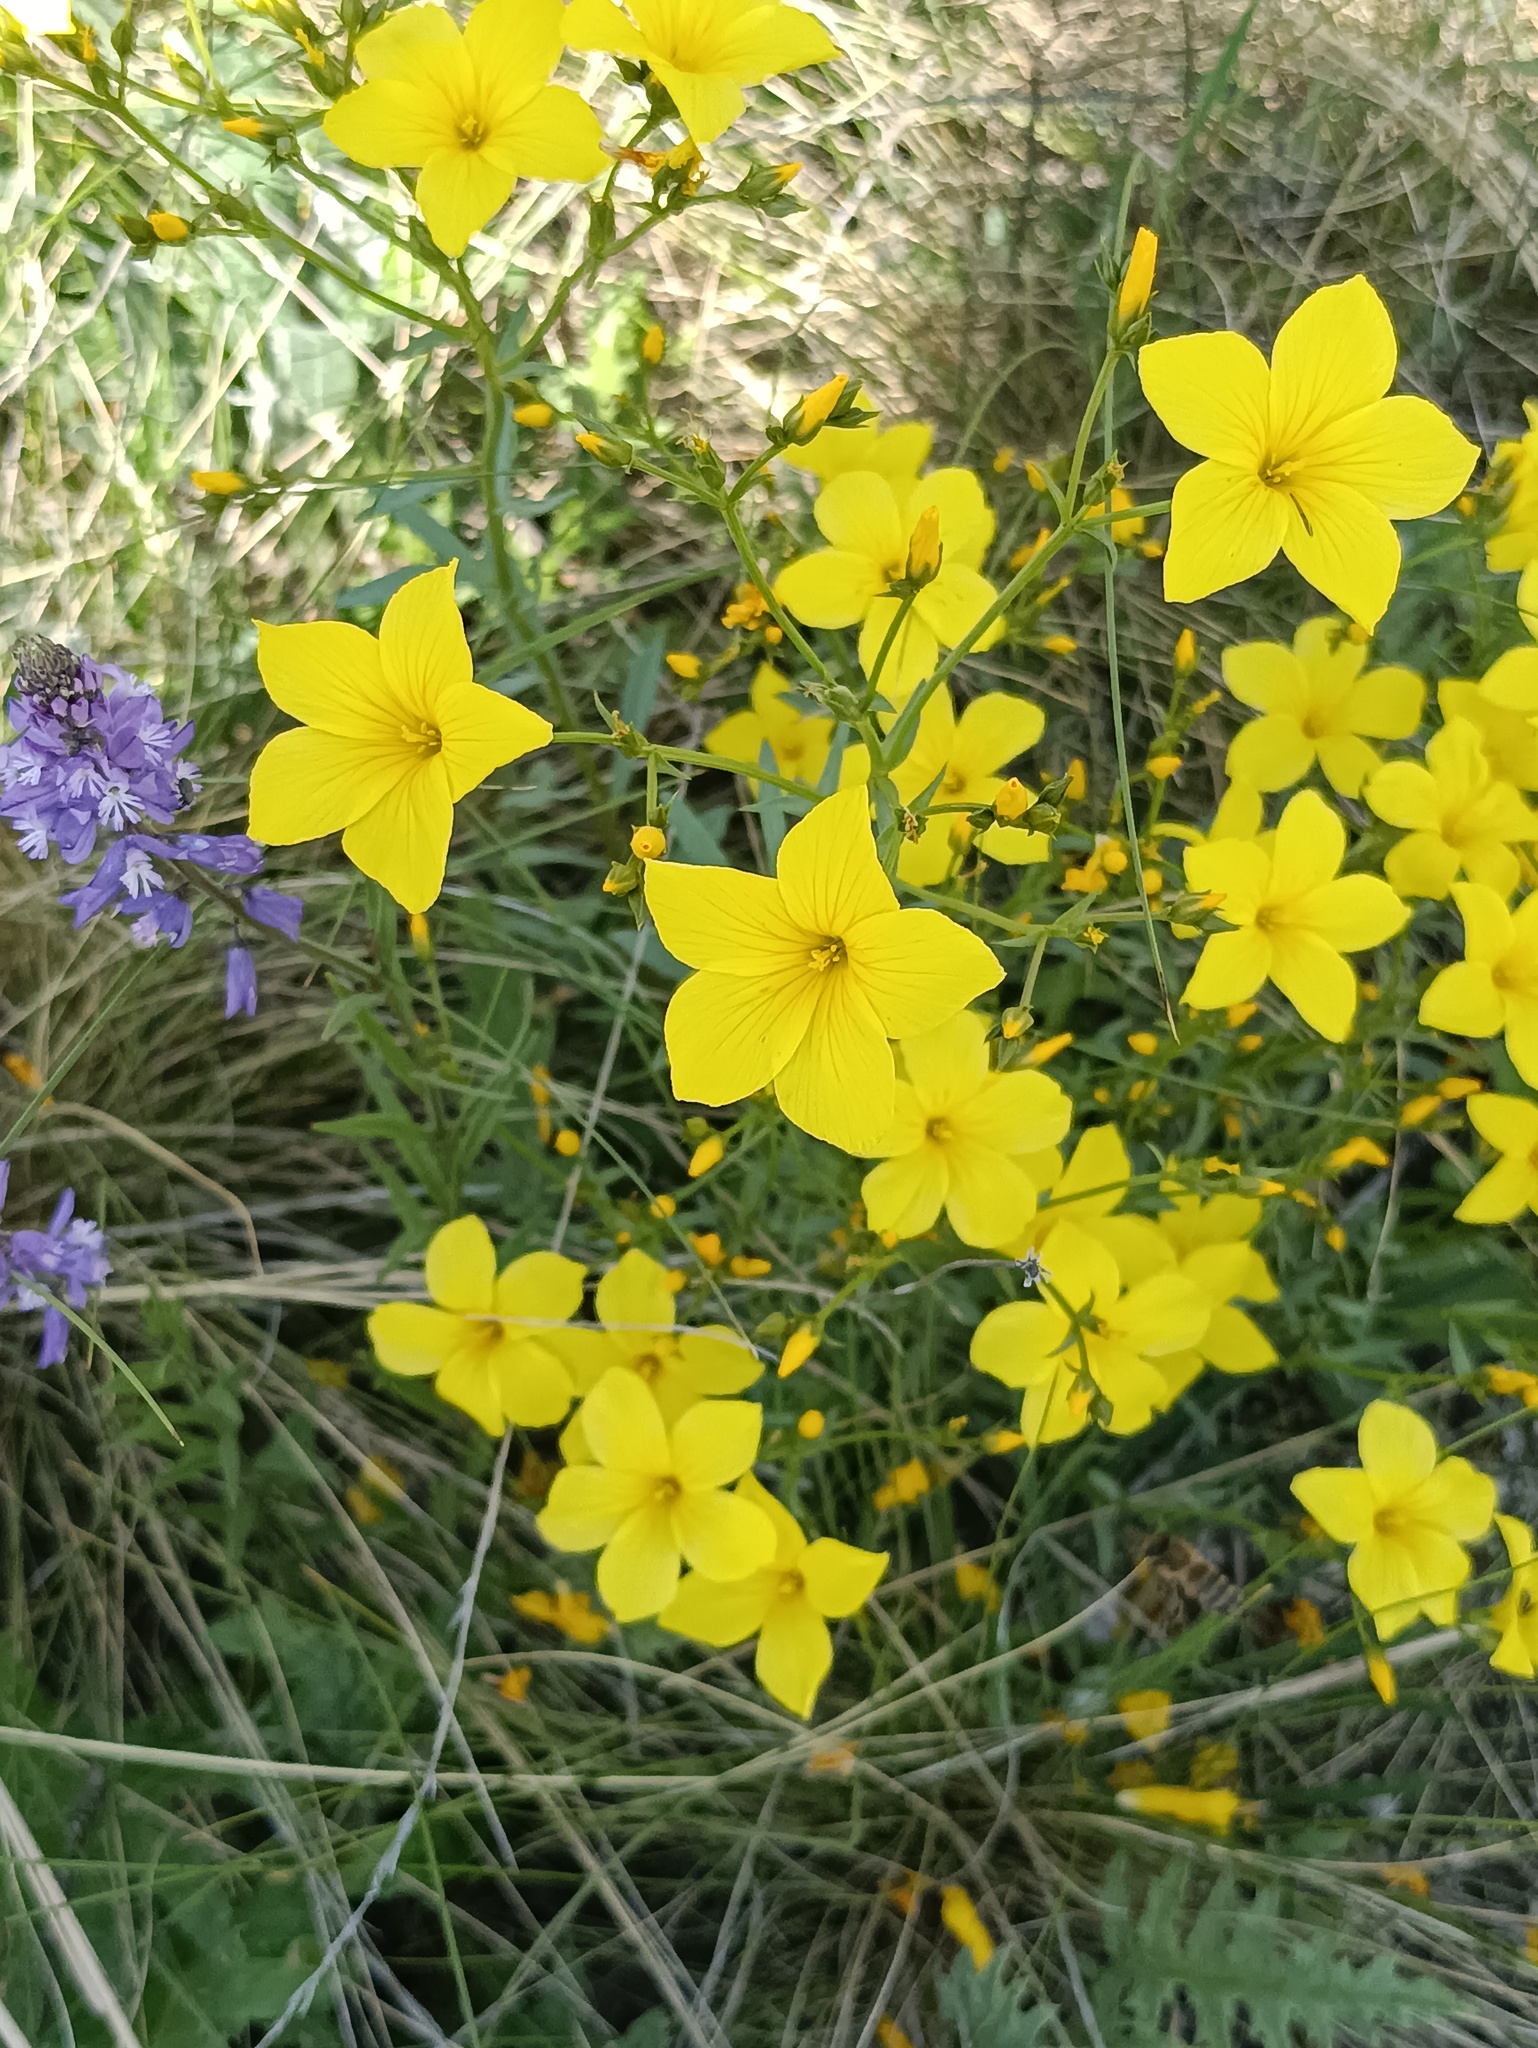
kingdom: Plantae
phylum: Tracheophyta
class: Magnoliopsida
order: Malpighiales
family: Linaceae
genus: Linum
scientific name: Linum ucranicum
